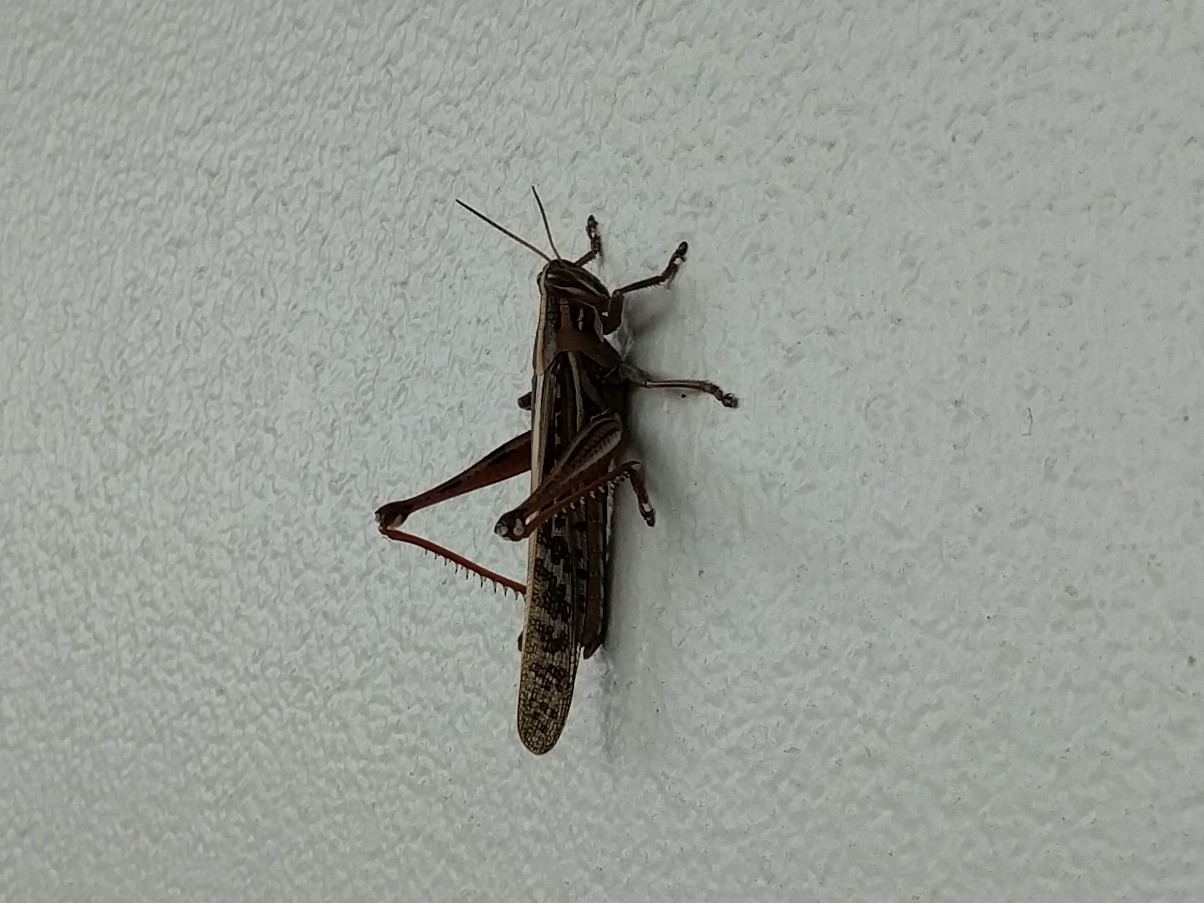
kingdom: Animalia
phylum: Arthropoda
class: Insecta
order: Orthoptera
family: Acrididae
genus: Schistocerca
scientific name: Schistocerca americana
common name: American bird locust
